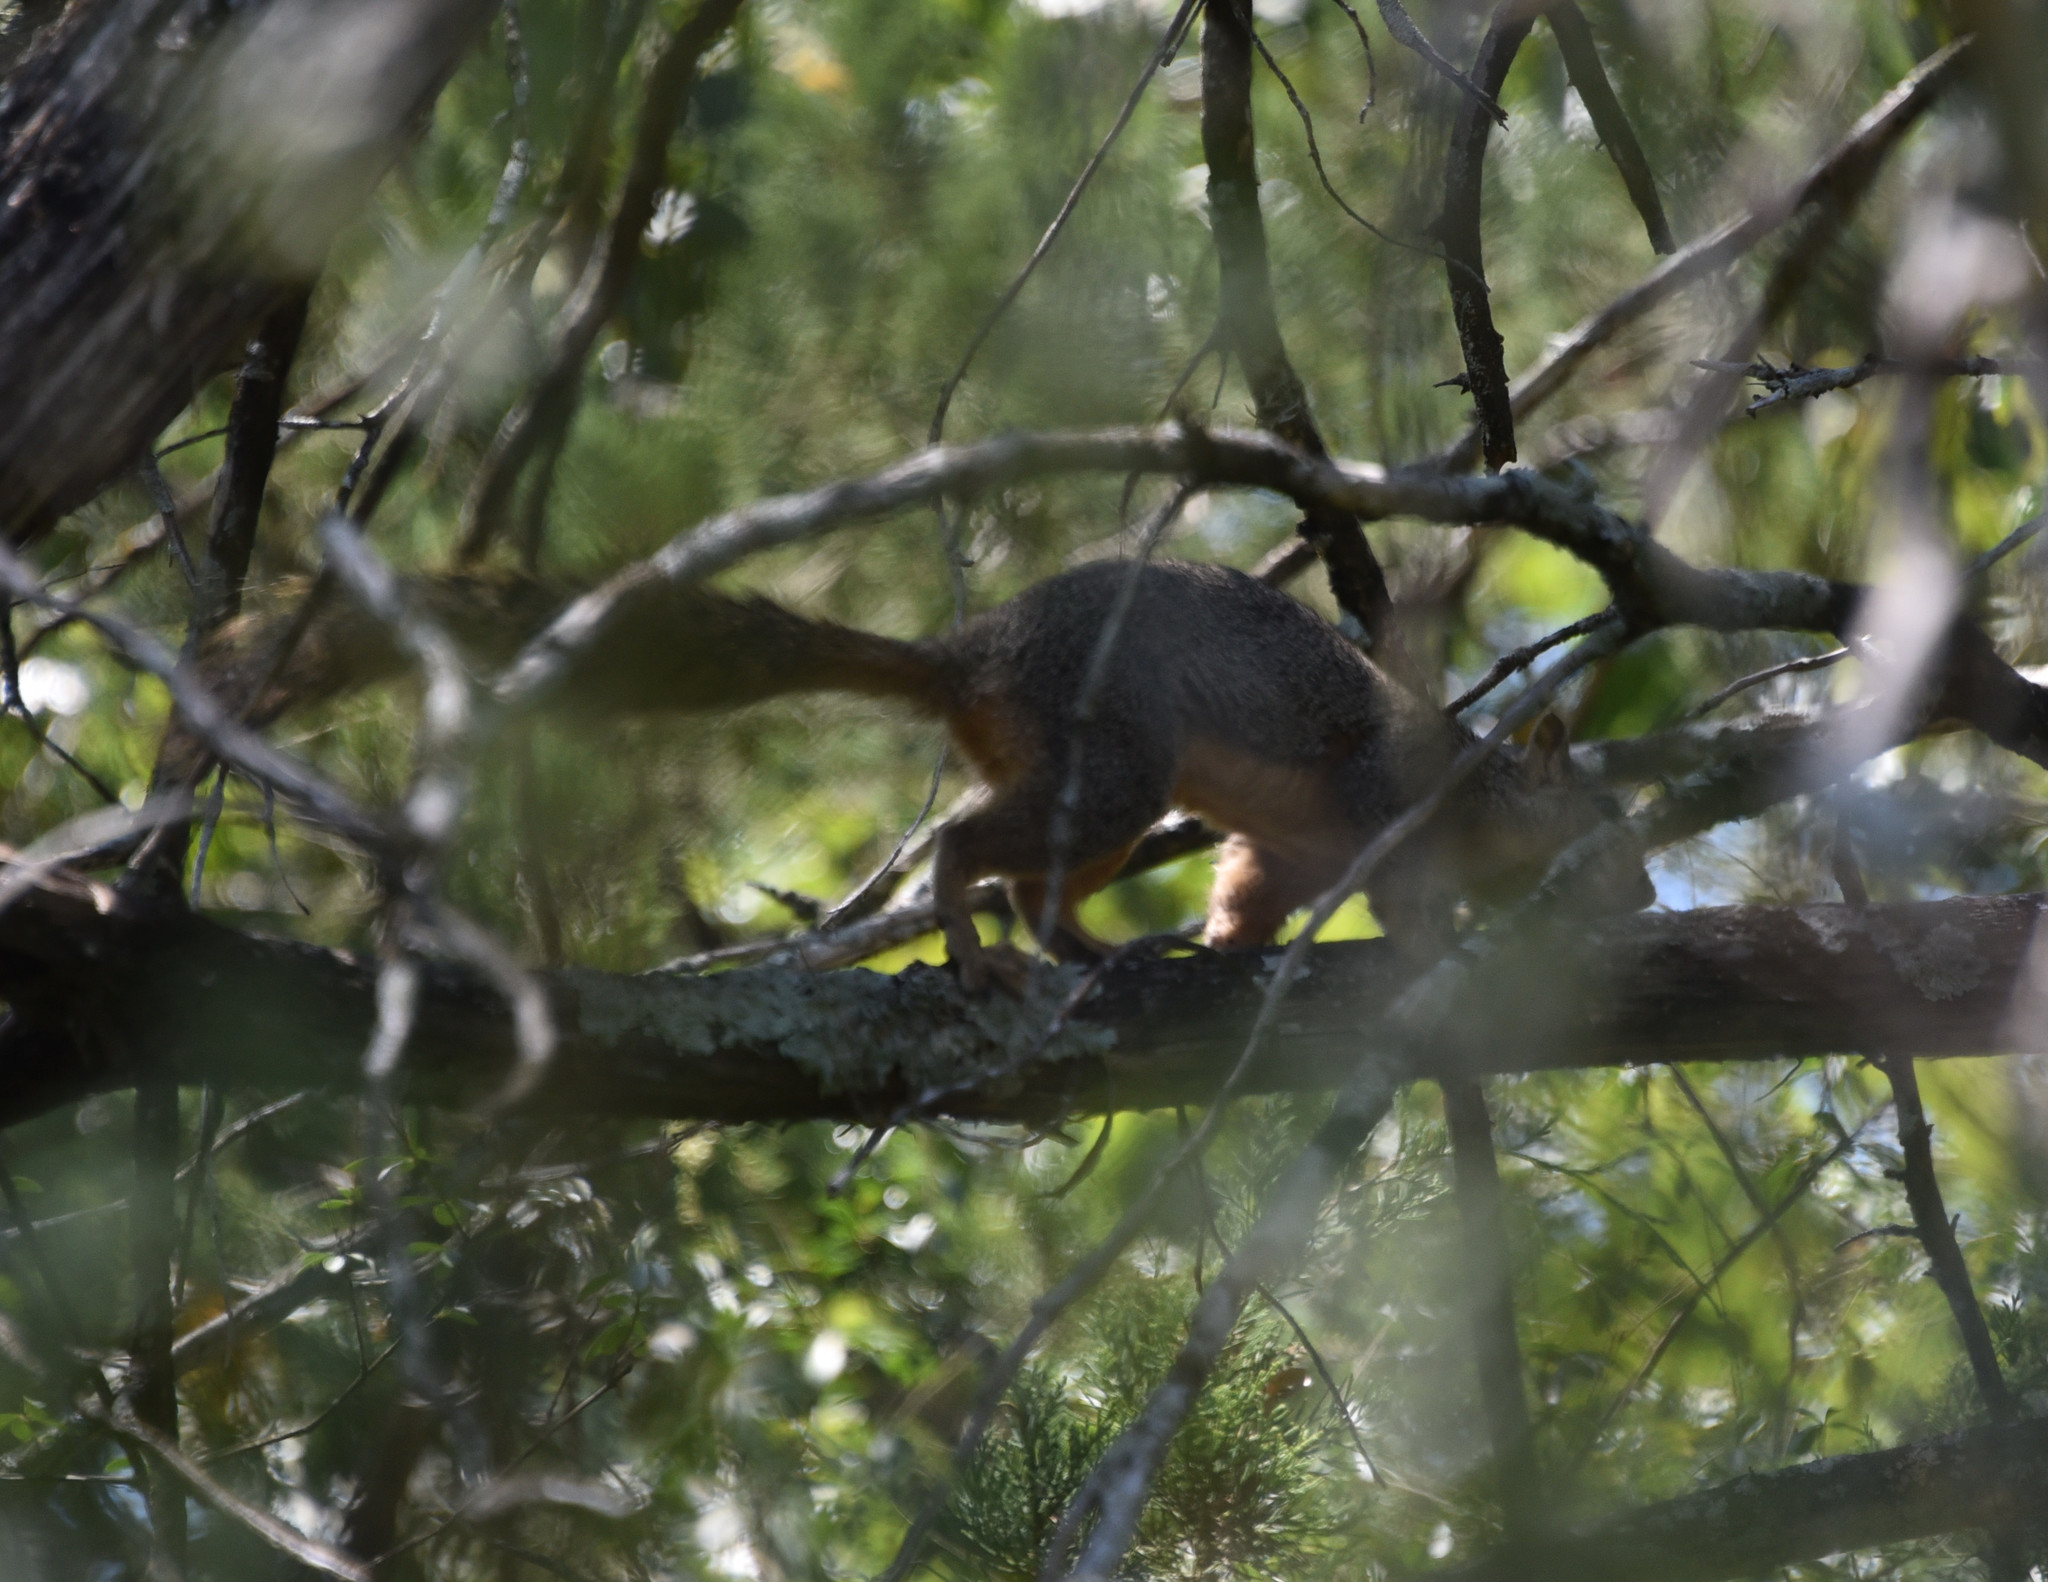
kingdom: Animalia
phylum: Chordata
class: Mammalia
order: Rodentia
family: Sciuridae
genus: Sciurus
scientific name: Sciurus niger
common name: Fox squirrel
